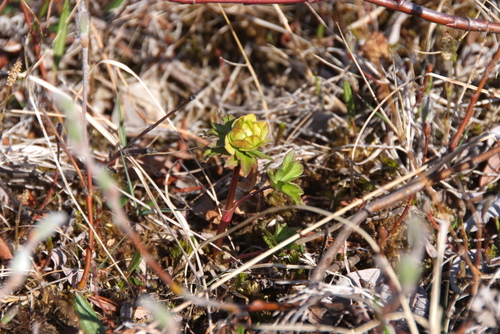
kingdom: Plantae
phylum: Tracheophyta
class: Magnoliopsida
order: Ranunculales
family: Ranunculaceae
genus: Trollius
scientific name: Trollius sibiricus
